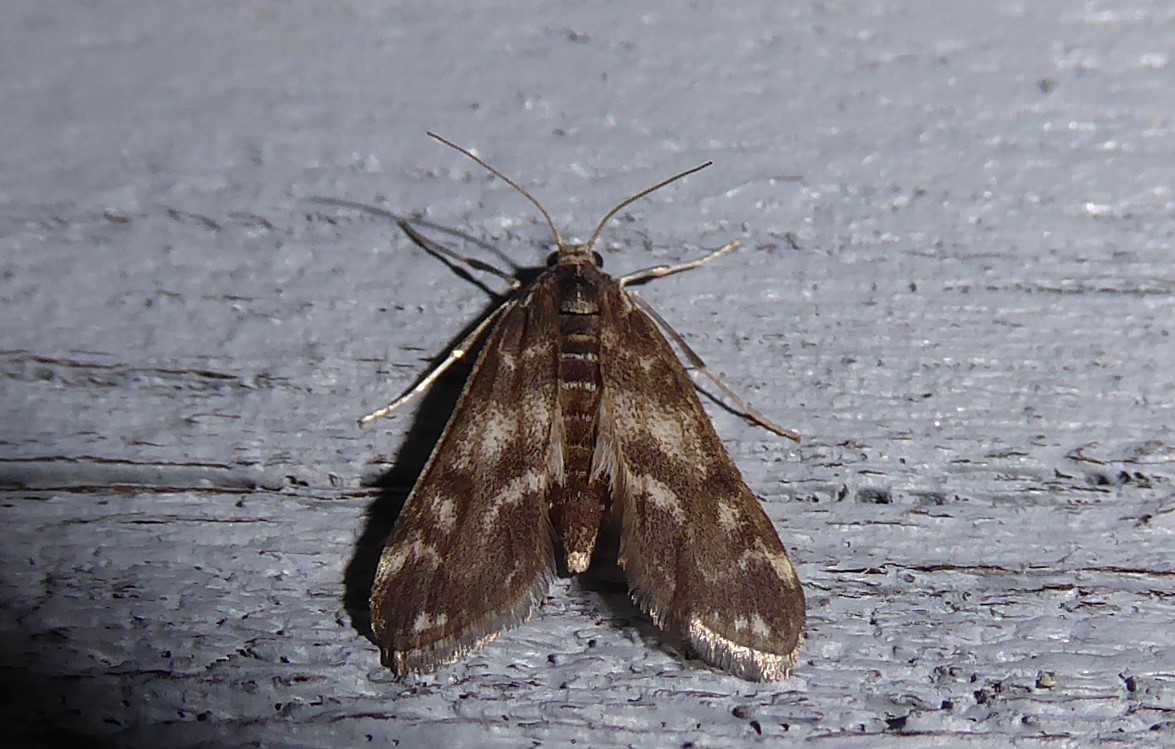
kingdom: Animalia
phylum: Arthropoda
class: Insecta
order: Lepidoptera
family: Crambidae
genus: Hygraula
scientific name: Hygraula nitens
